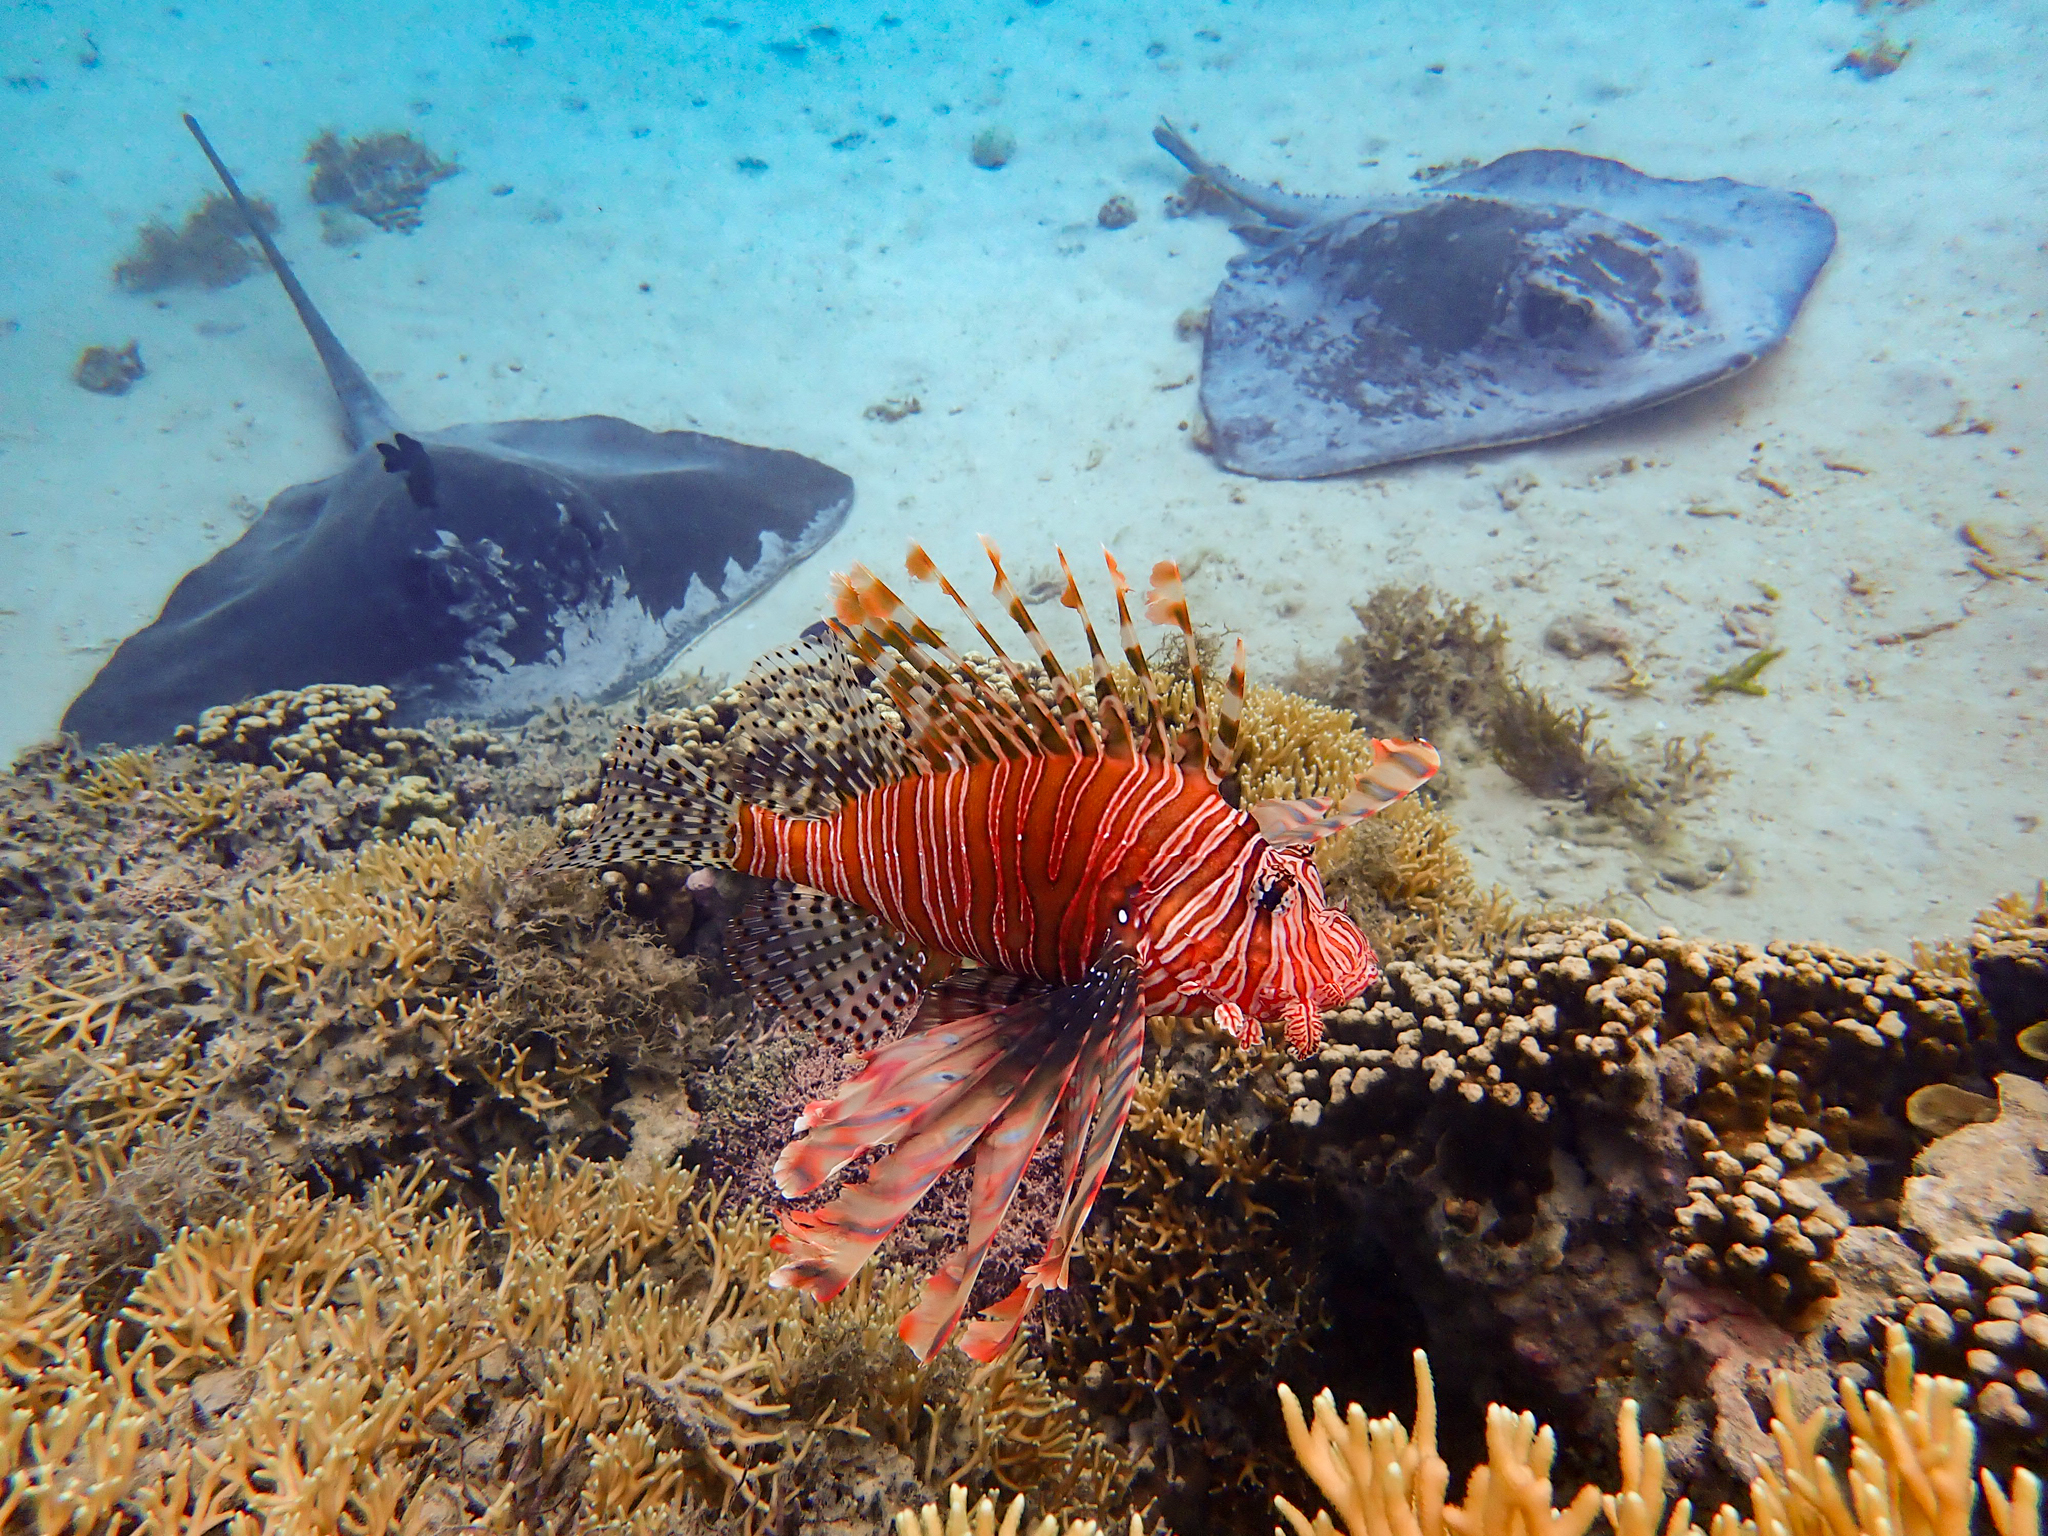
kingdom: Animalia
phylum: Chordata
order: Scorpaeniformes
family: Scorpaenidae
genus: Pterois
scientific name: Pterois volitans
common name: Lionfish
